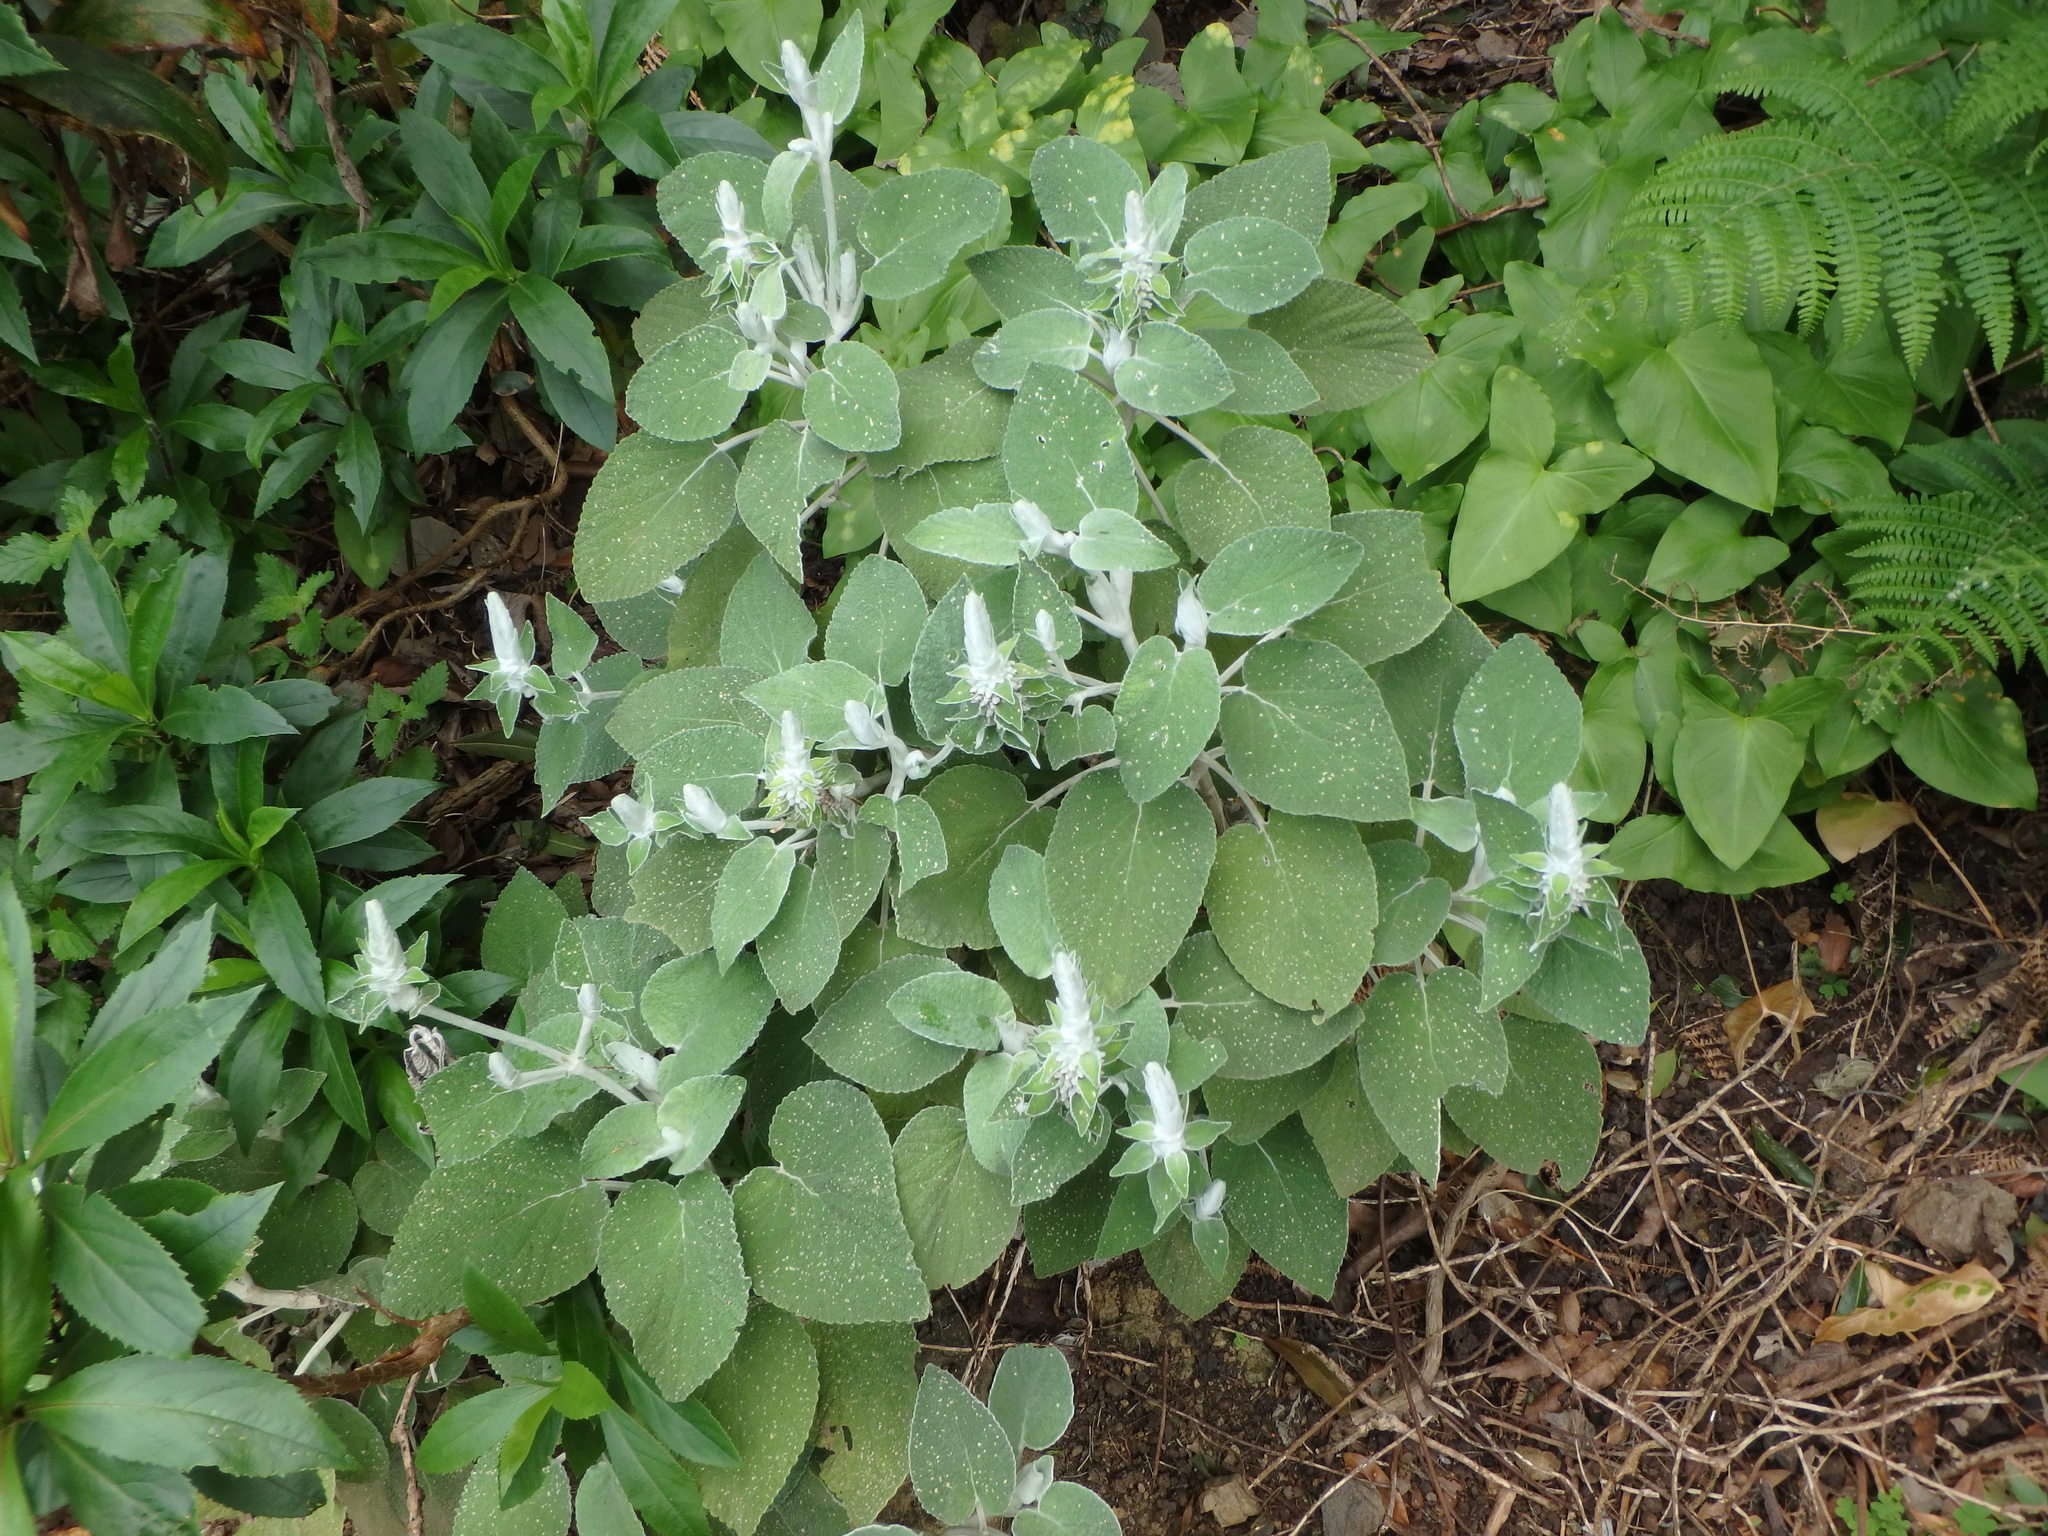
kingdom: Plantae
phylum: Tracheophyta
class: Magnoliopsida
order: Lamiales
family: Lamiaceae
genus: Sideritis
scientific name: Sideritis macrostachyos
